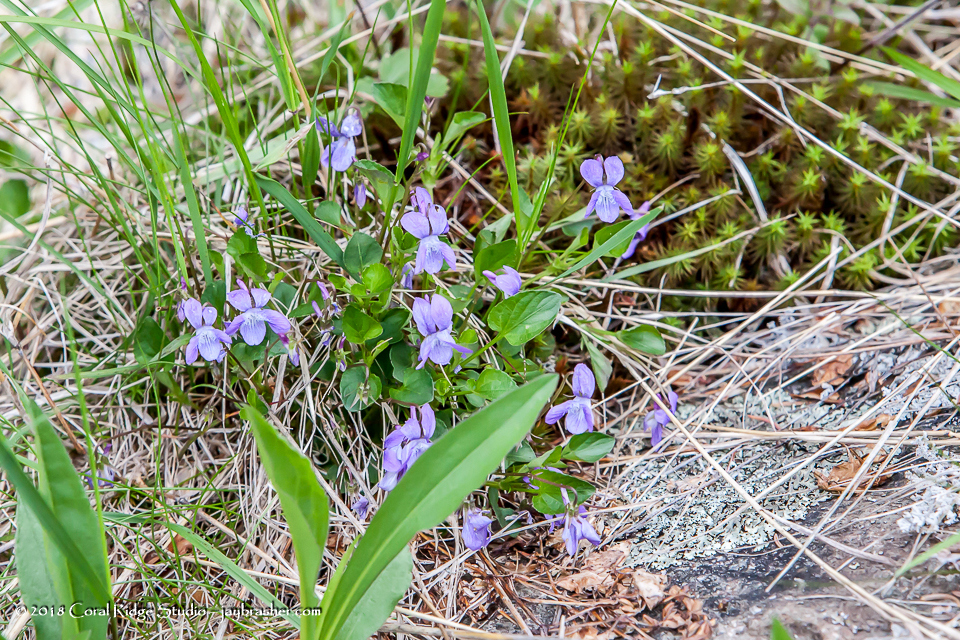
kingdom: Plantae
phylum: Tracheophyta
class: Magnoliopsida
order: Malpighiales
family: Violaceae
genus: Viola
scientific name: Viola adunca
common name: Sand violet
